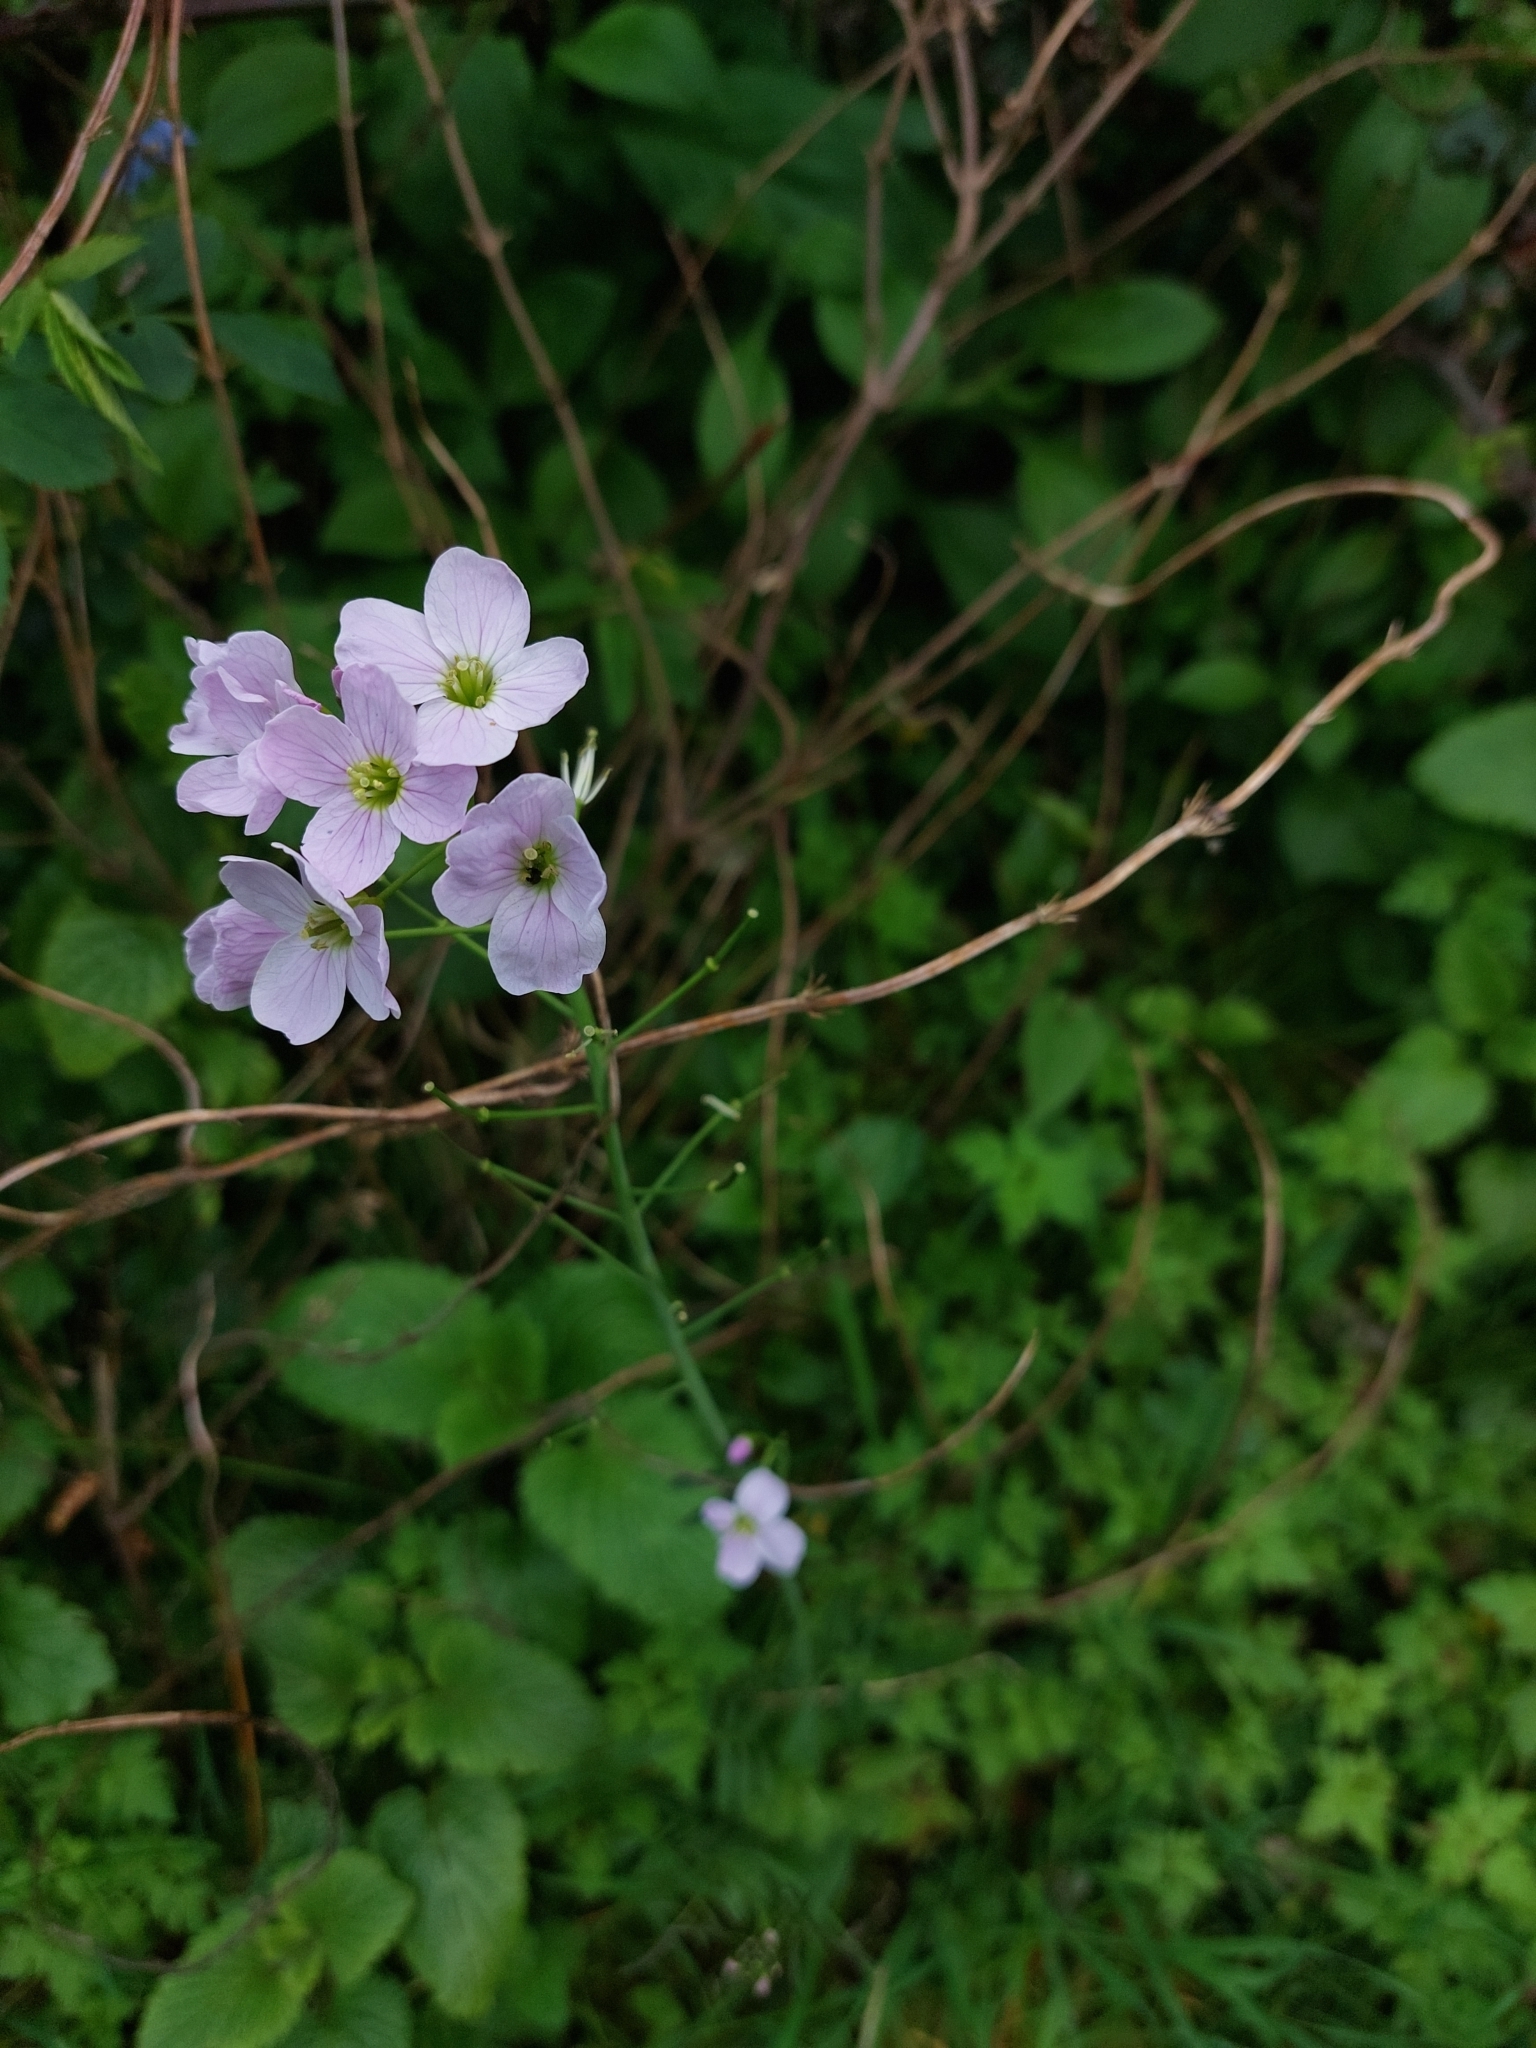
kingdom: Plantae
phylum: Tracheophyta
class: Magnoliopsida
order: Brassicales
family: Brassicaceae
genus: Cardamine
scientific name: Cardamine pratensis
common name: Cuckoo flower
